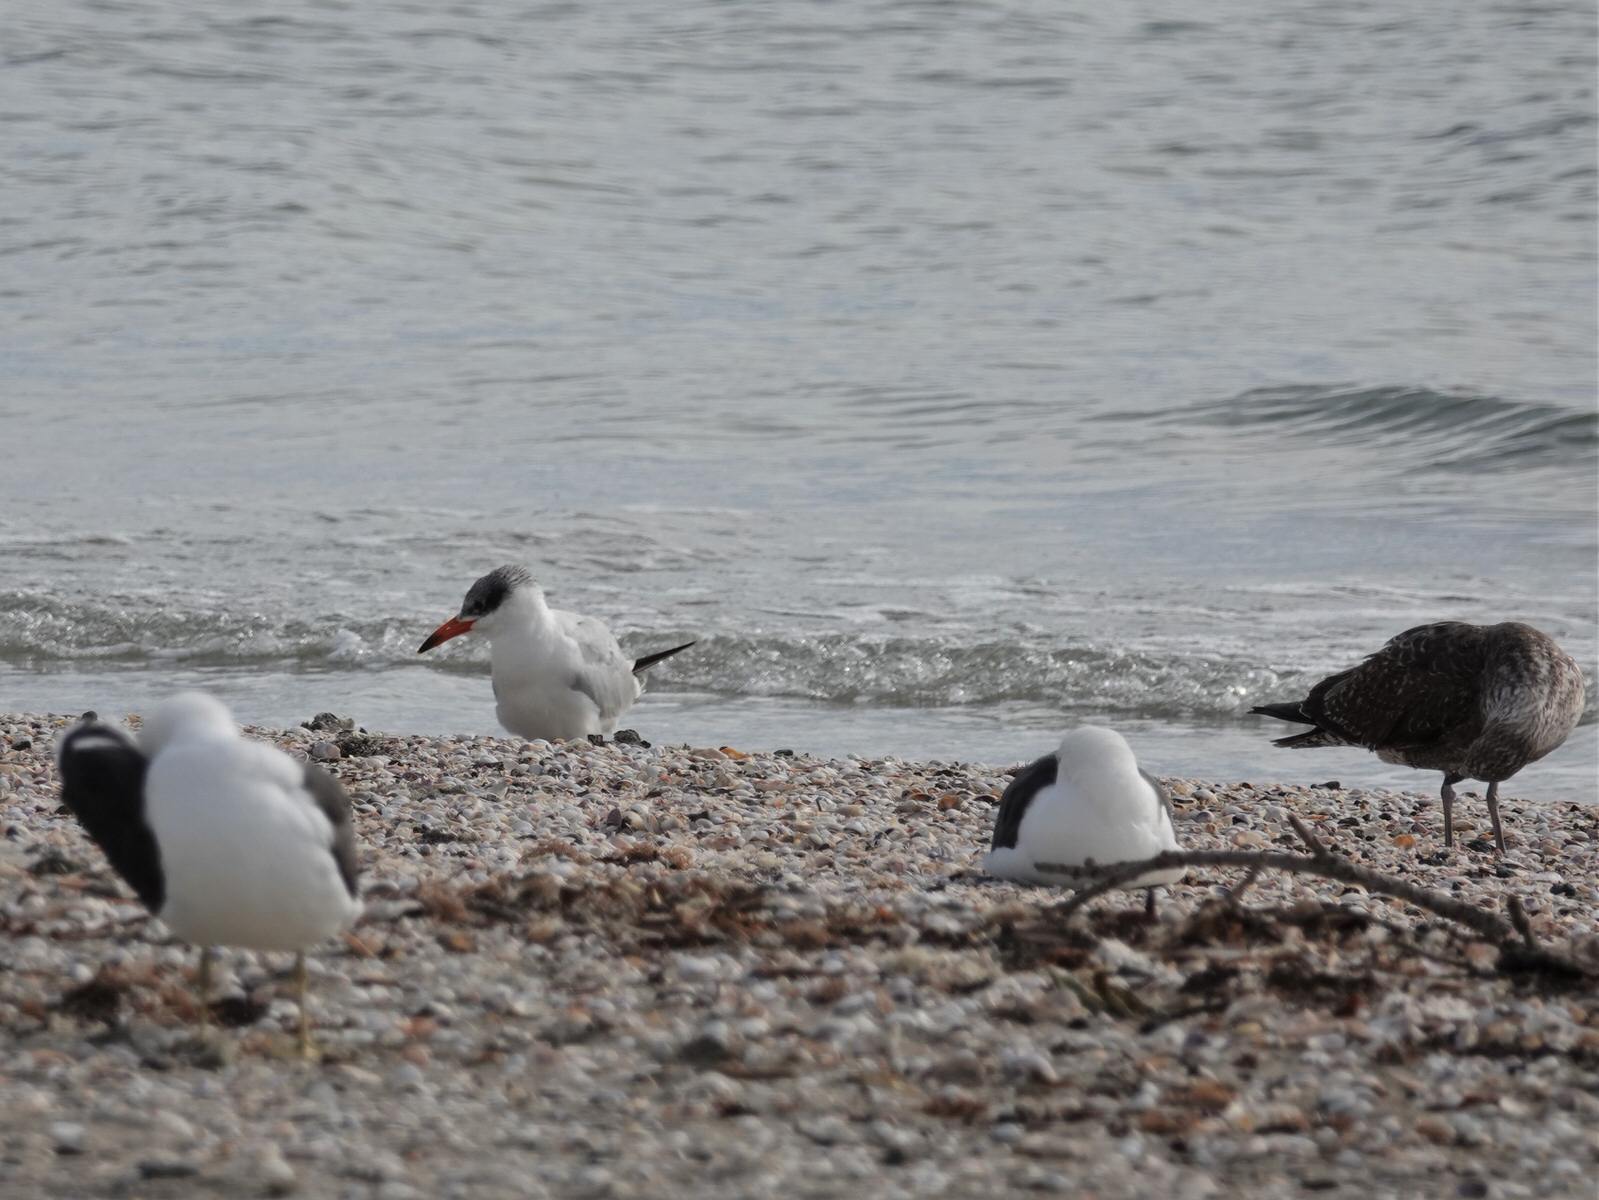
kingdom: Animalia
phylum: Chordata
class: Aves
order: Charadriiformes
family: Laridae
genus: Hydroprogne
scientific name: Hydroprogne caspia
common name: Caspian tern
